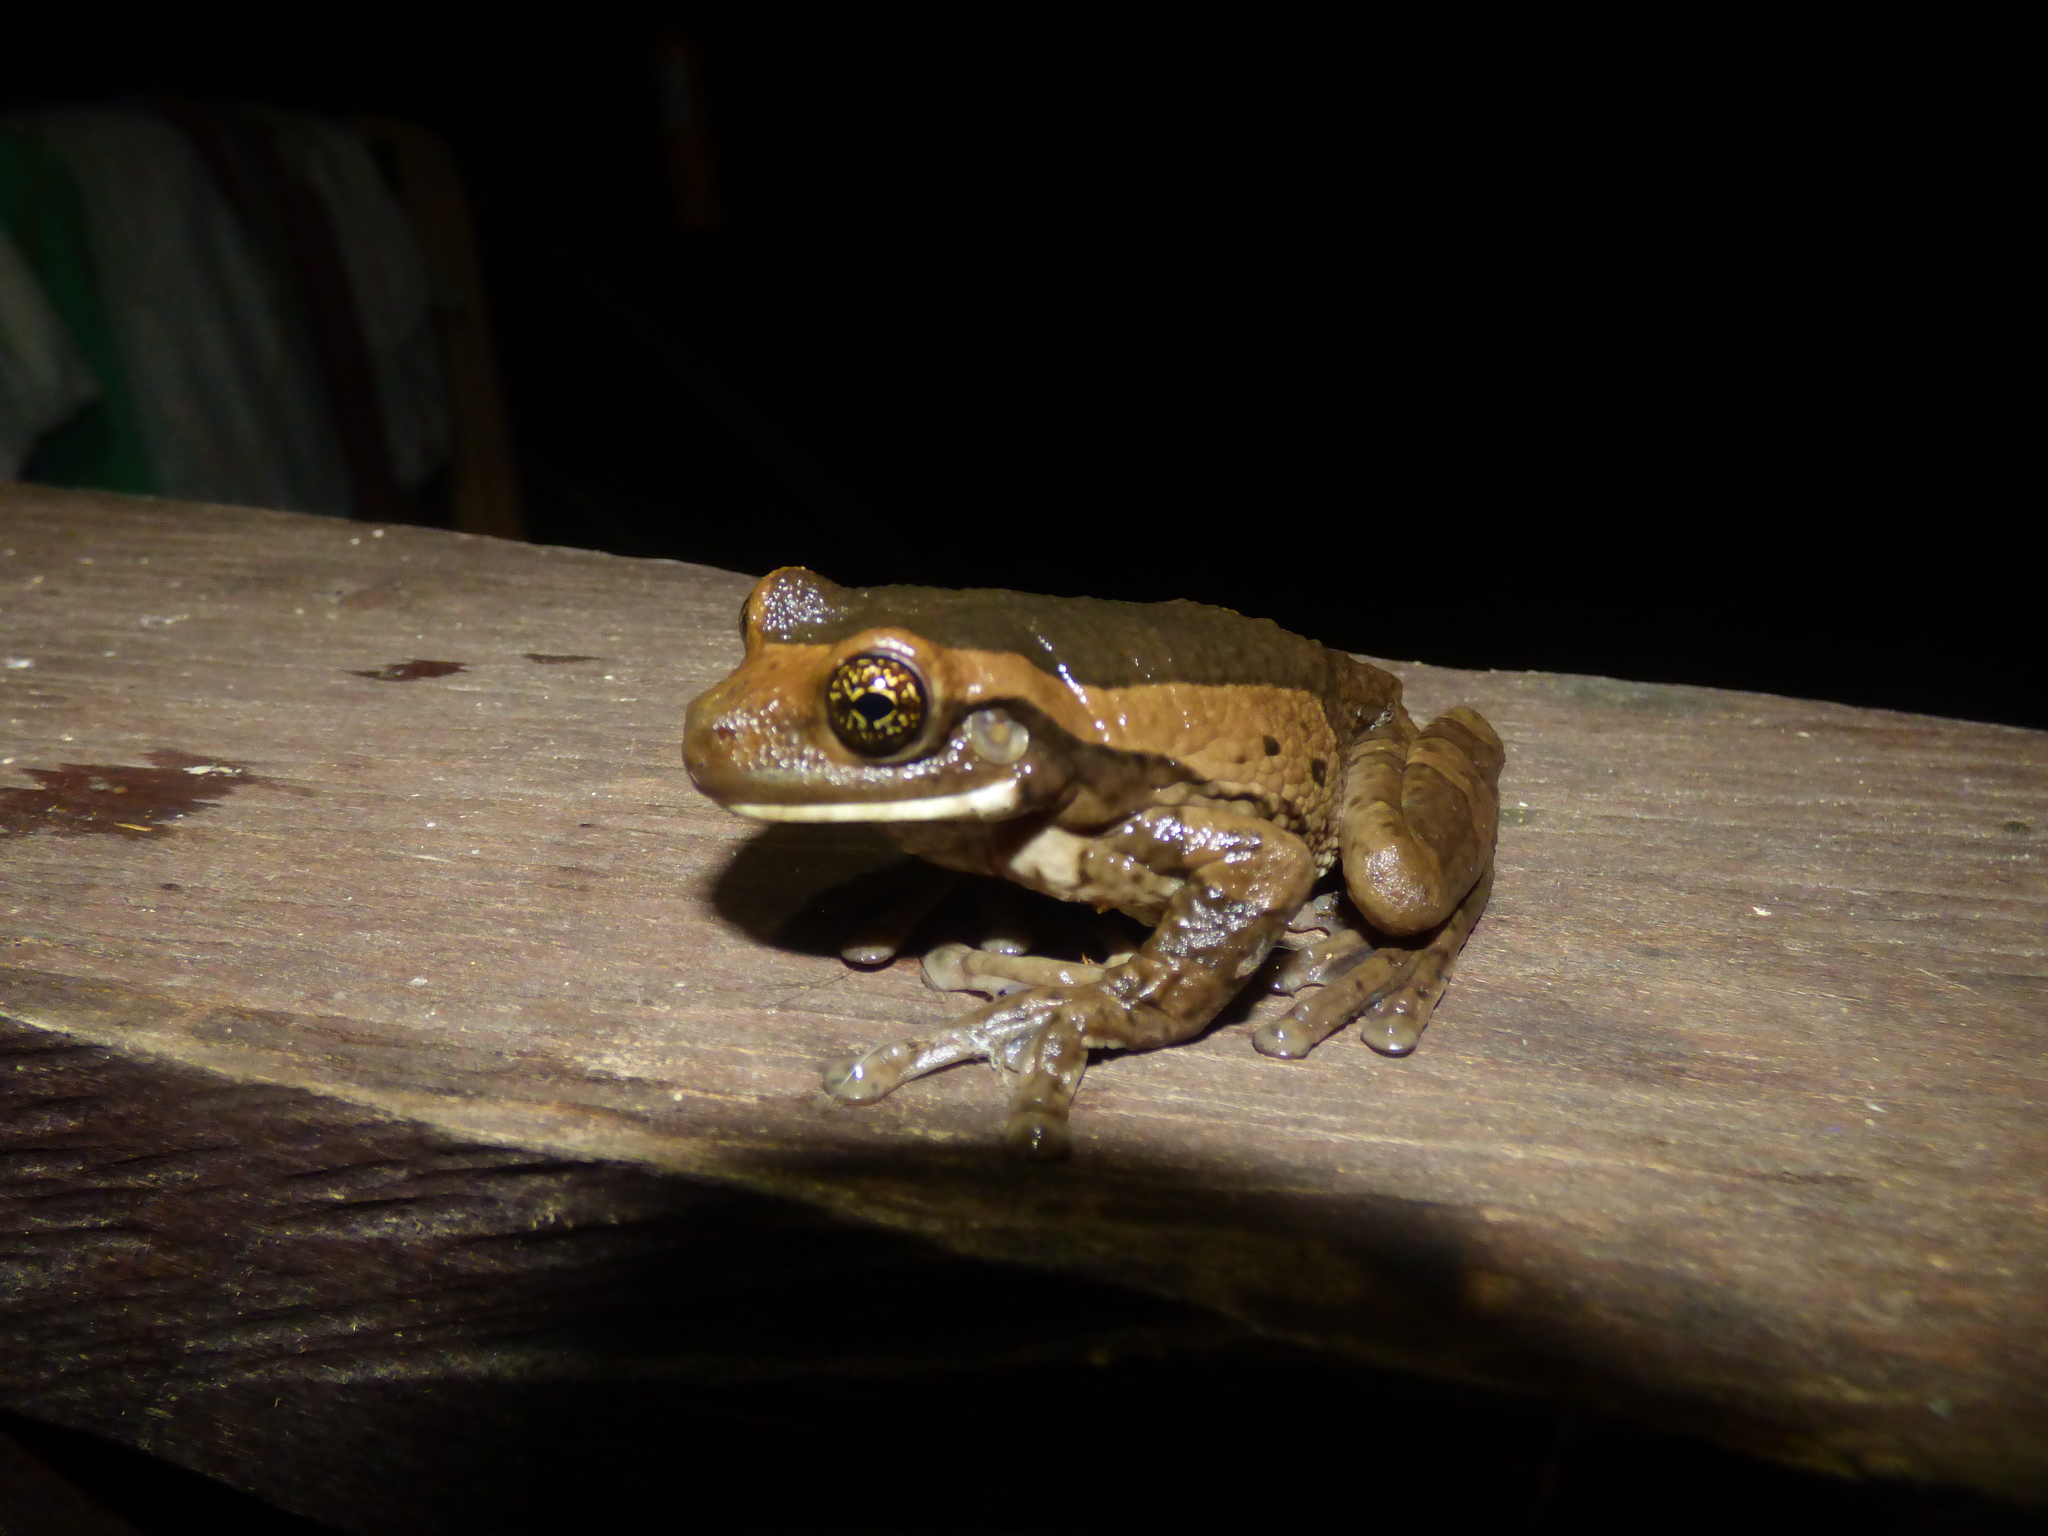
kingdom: Animalia
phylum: Chordata
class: Amphibia
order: Anura
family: Hylidae
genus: Trachycephalus
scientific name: Trachycephalus typhonius
